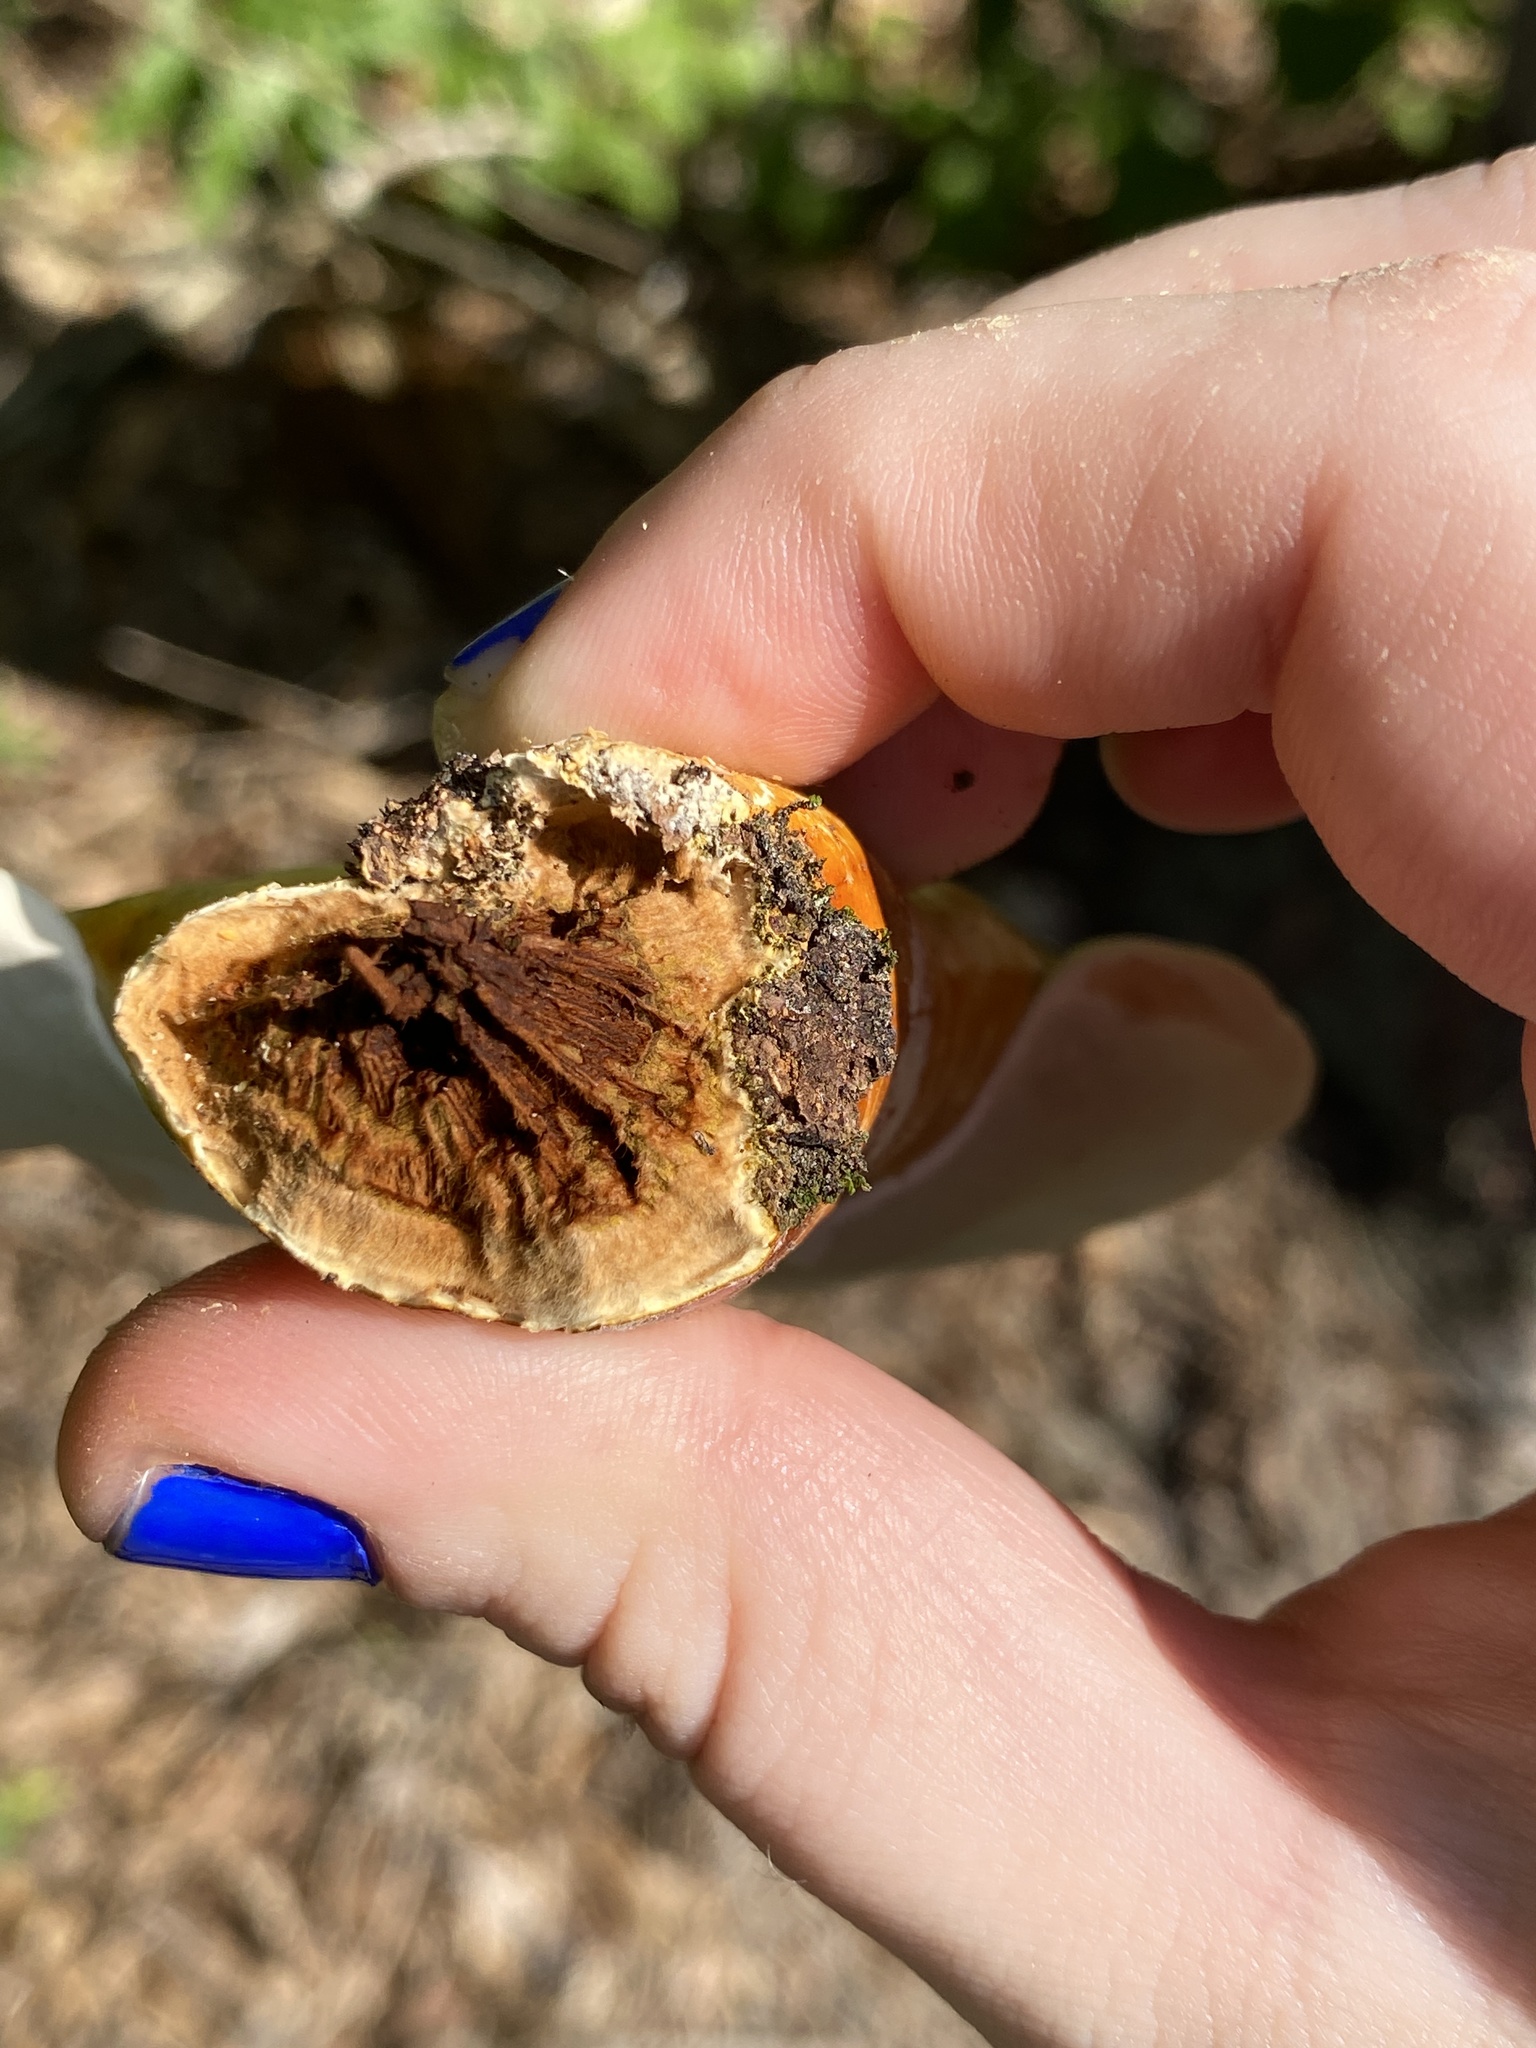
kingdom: Fungi
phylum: Basidiomycota
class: Agaricomycetes
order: Polyporales
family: Polyporaceae
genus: Ganoderma
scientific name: Ganoderma curtisii
